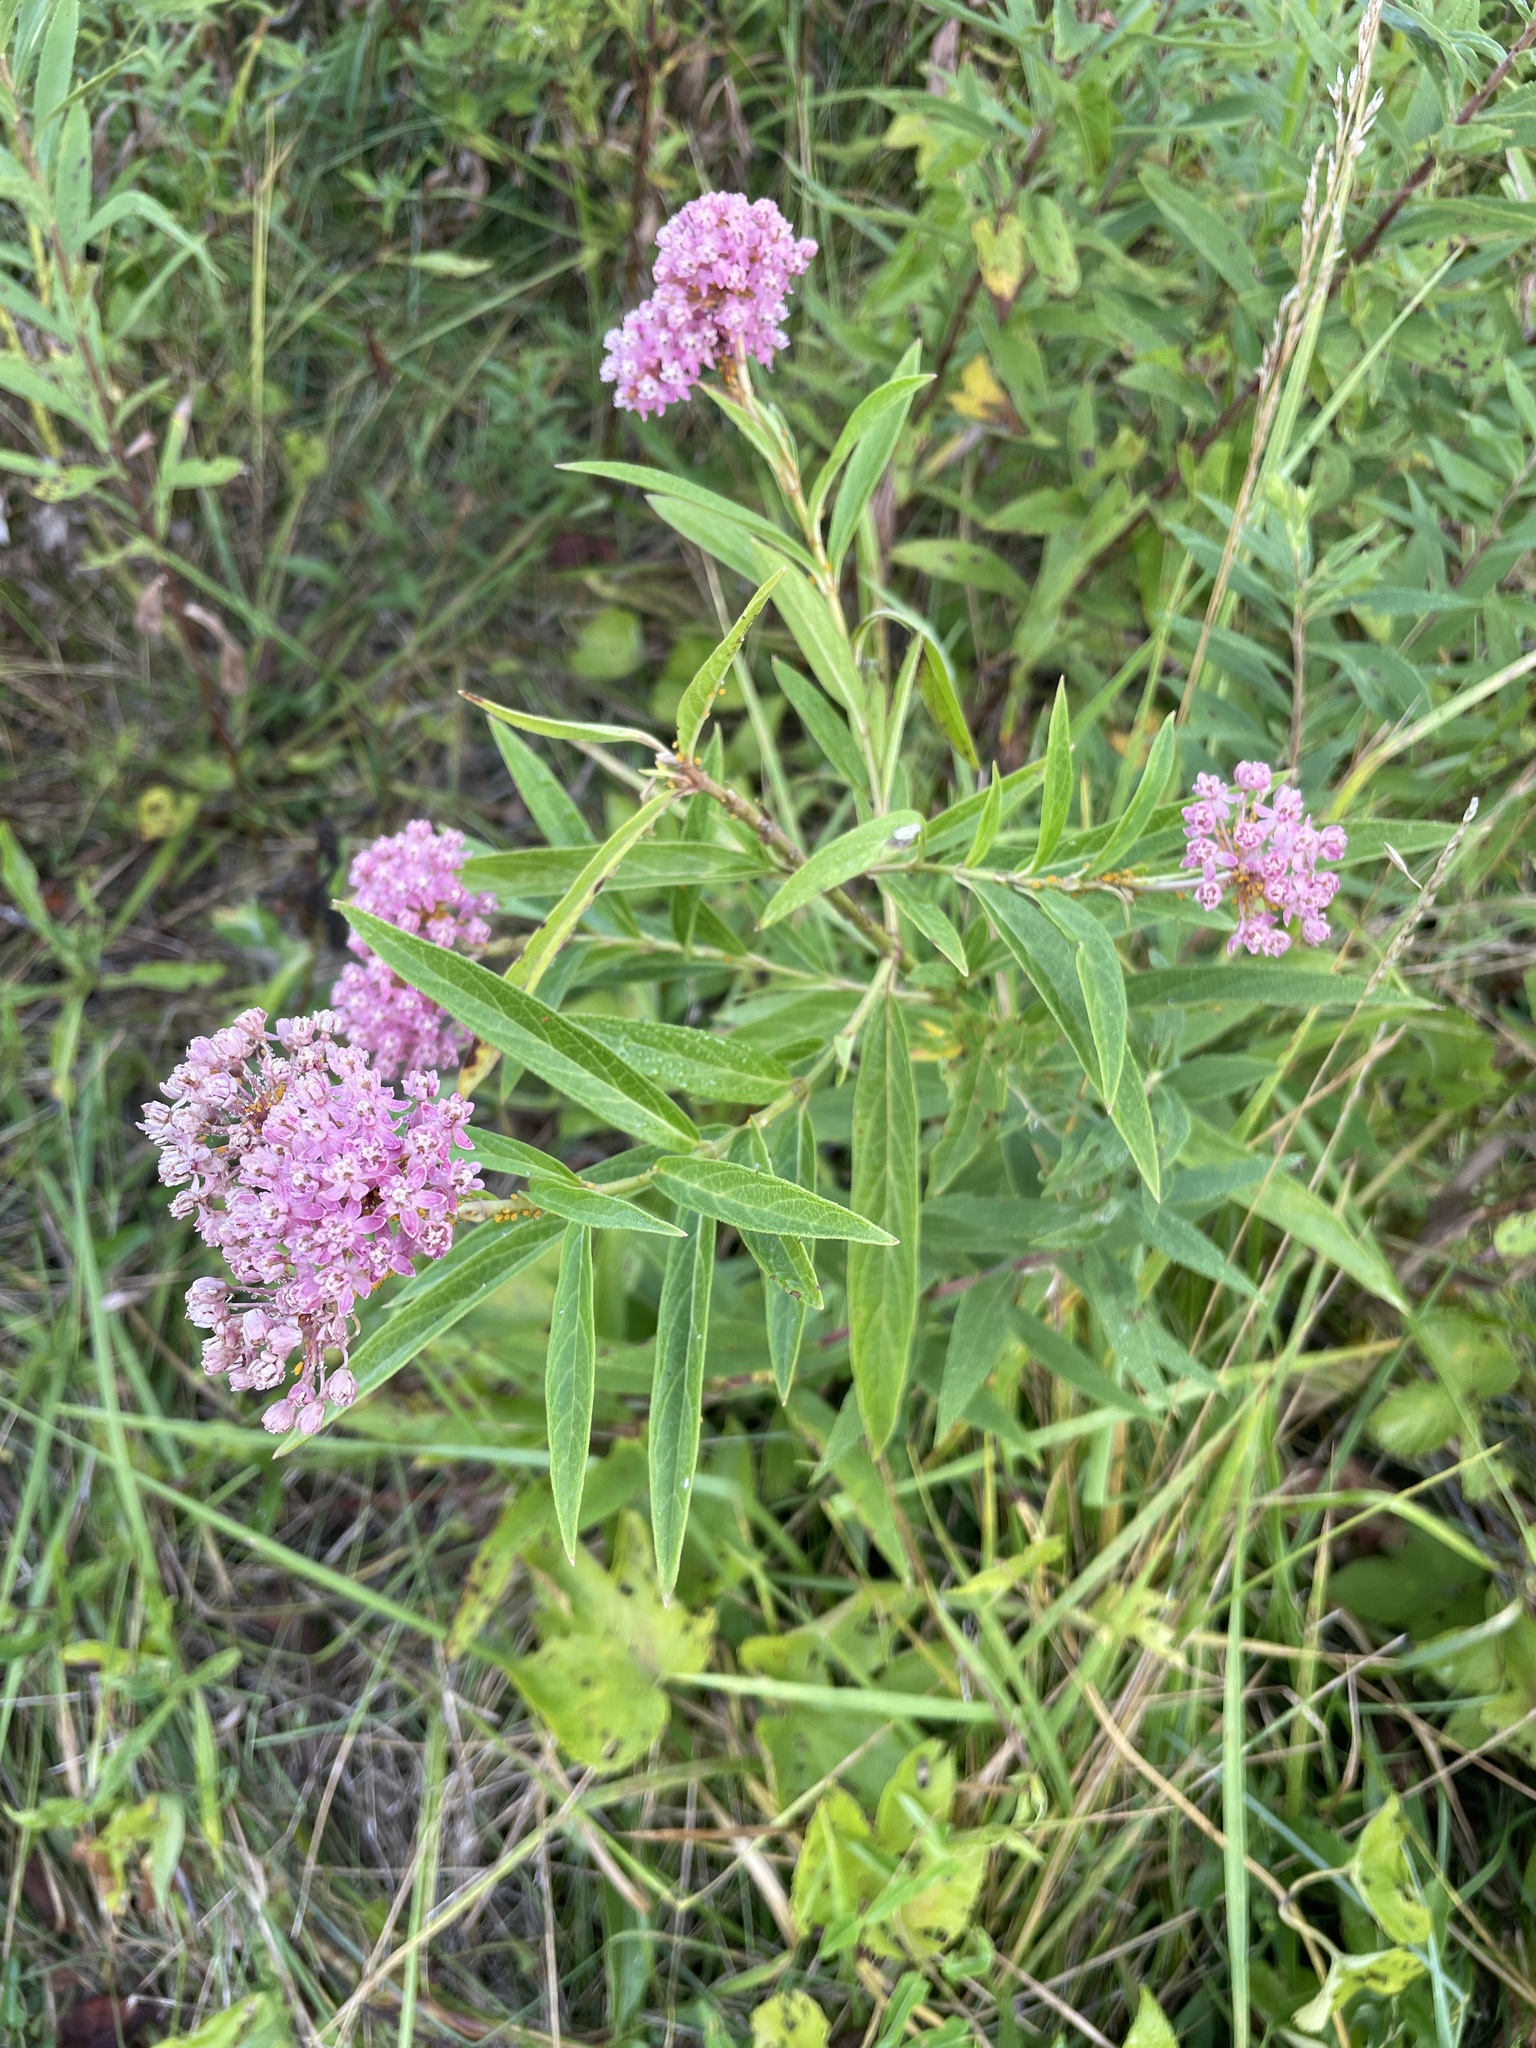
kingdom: Plantae
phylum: Tracheophyta
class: Magnoliopsida
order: Gentianales
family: Apocynaceae
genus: Asclepias
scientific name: Asclepias incarnata
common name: Swamp milkweed
